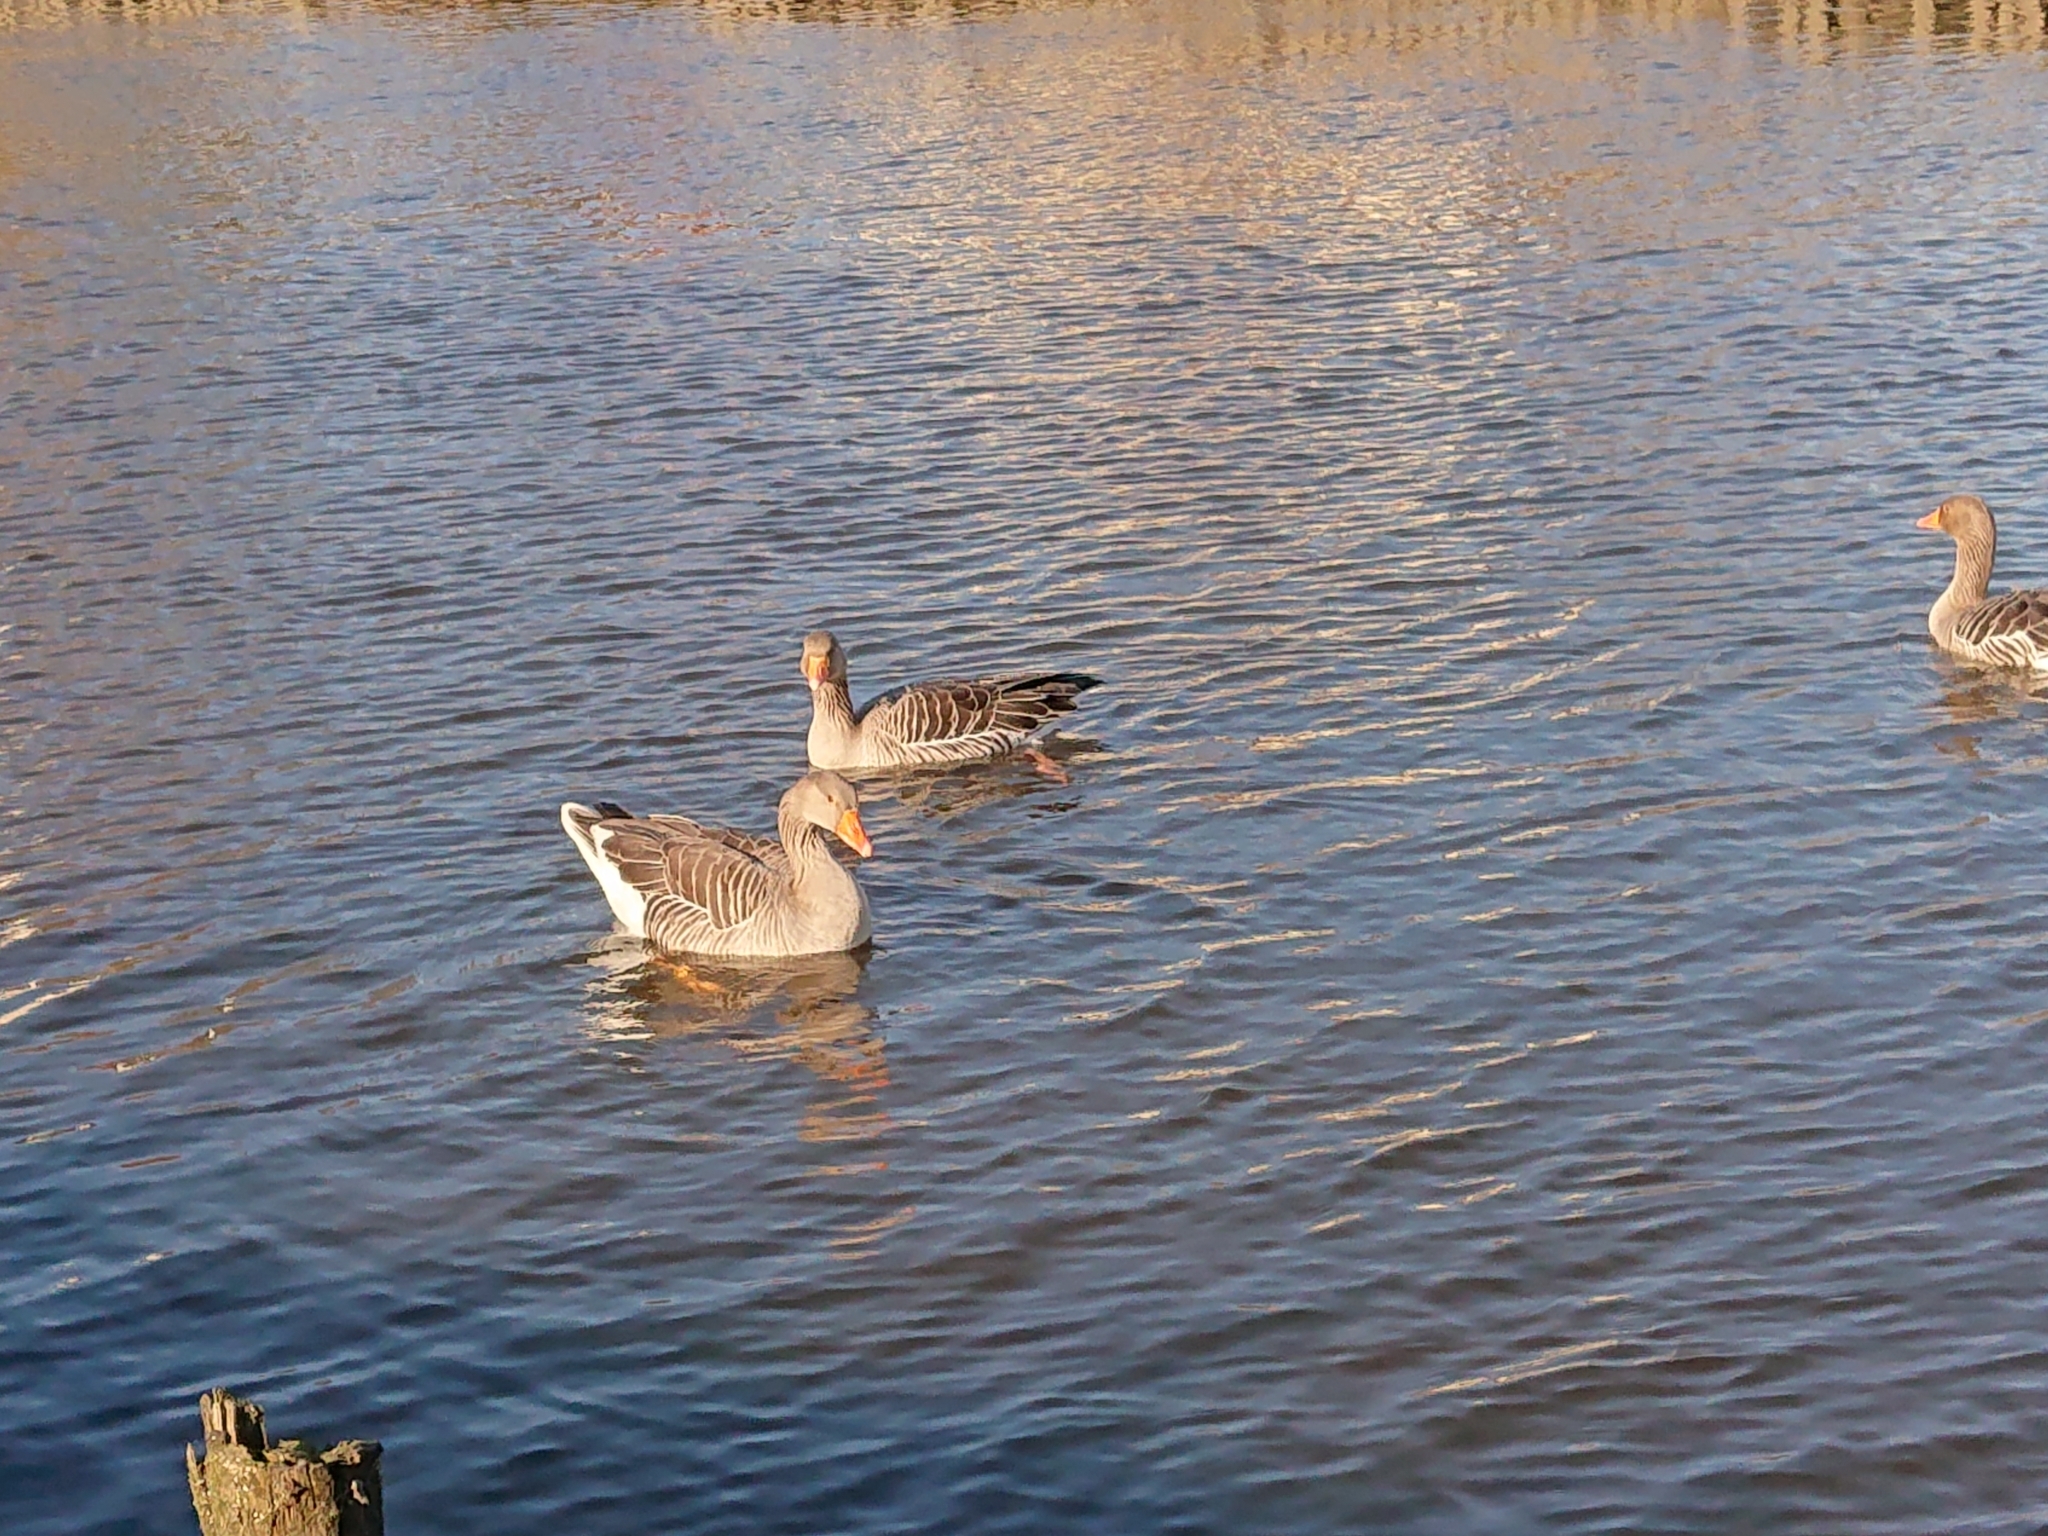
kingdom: Animalia
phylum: Chordata
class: Aves
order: Anseriformes
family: Anatidae
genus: Anser
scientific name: Anser anser
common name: Greylag goose
